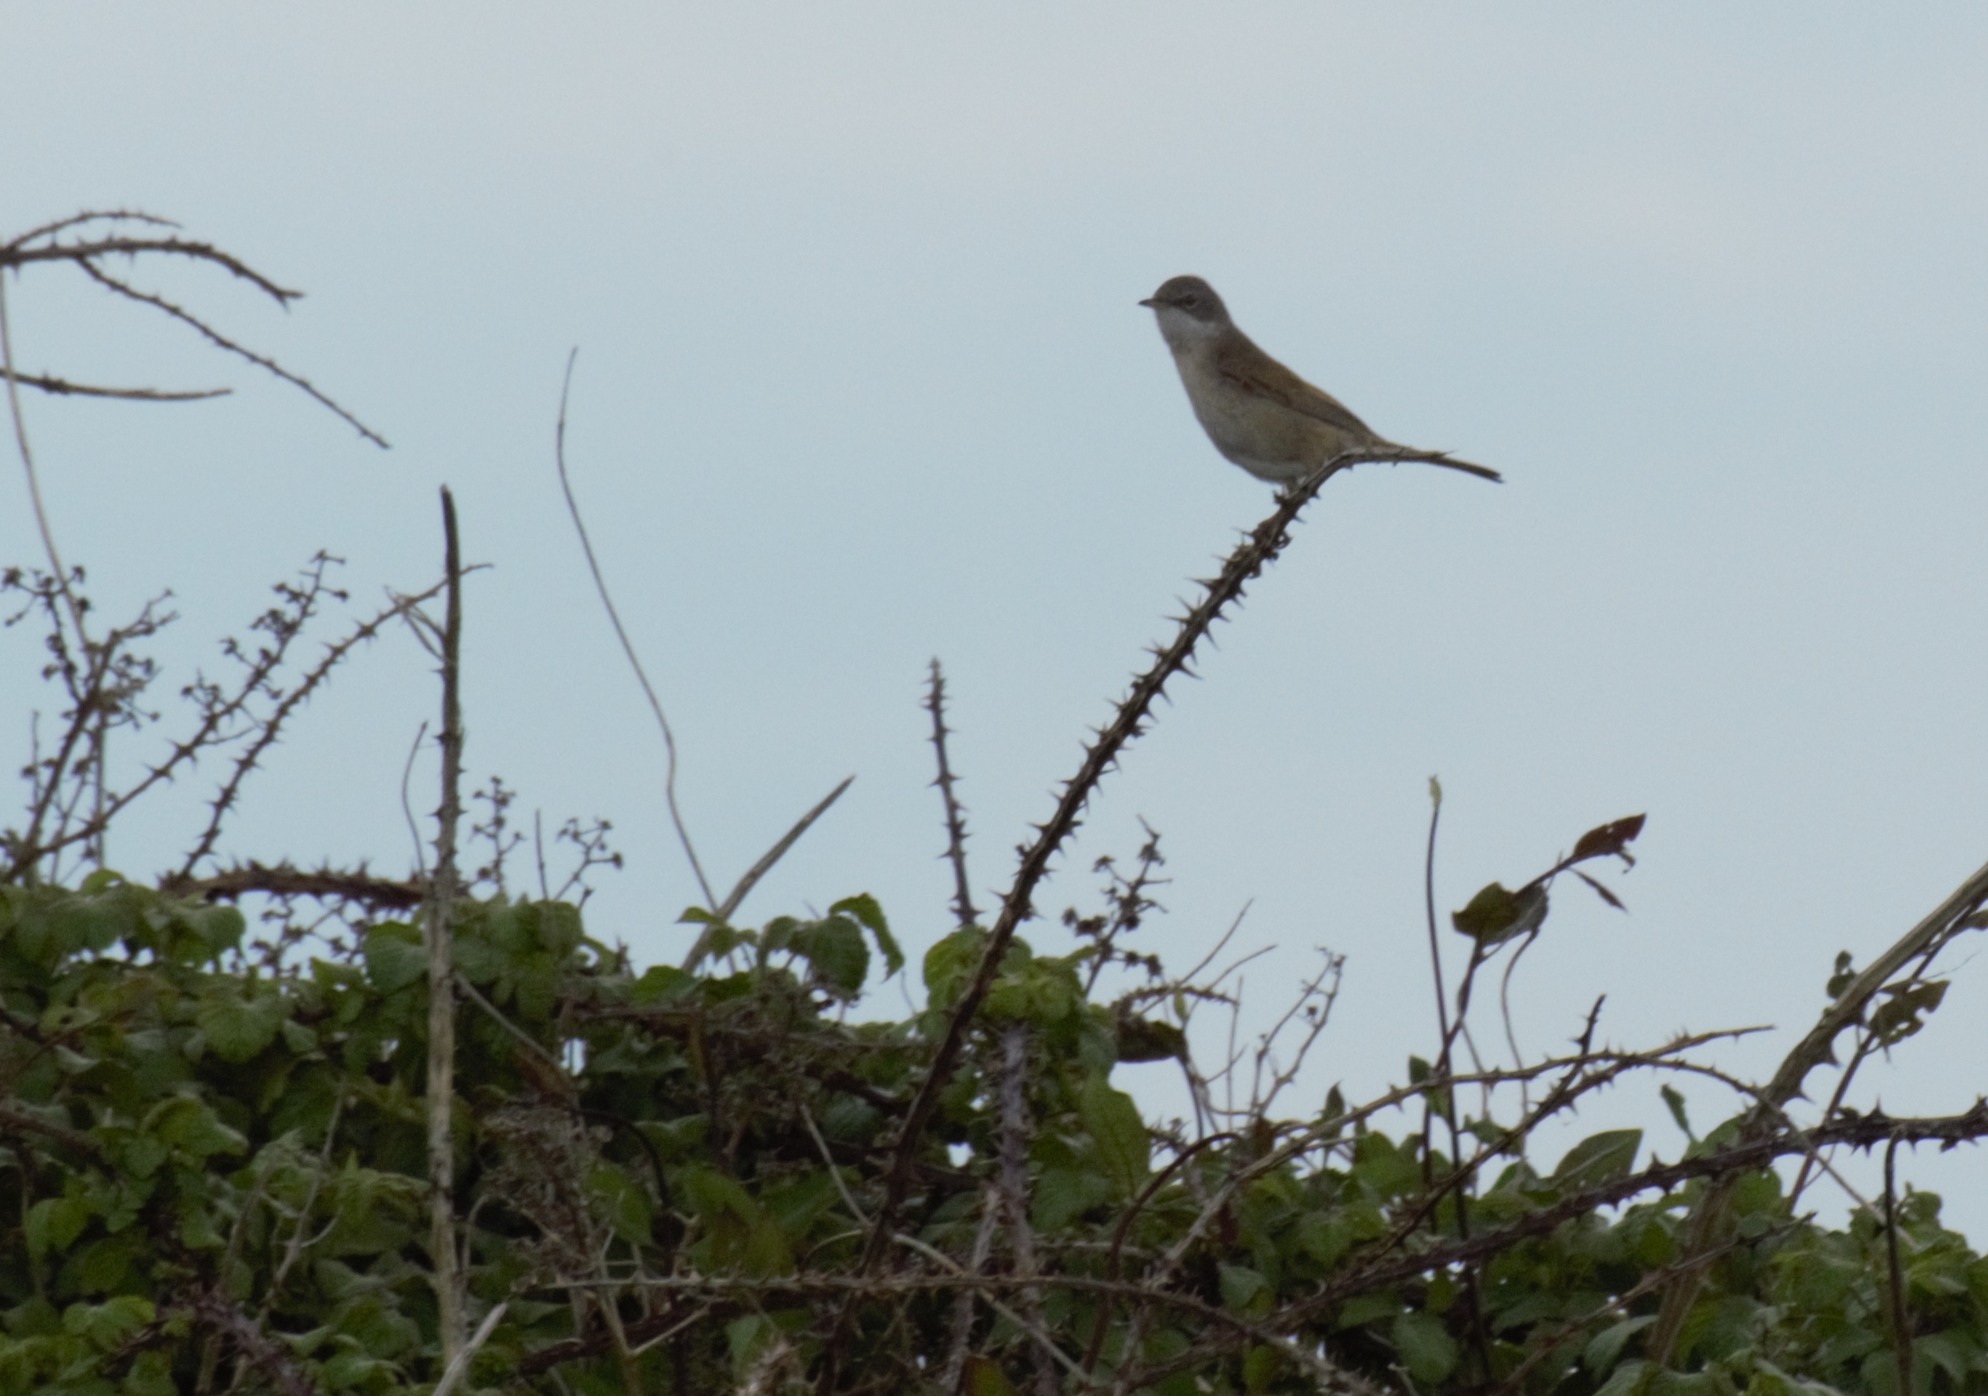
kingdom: Animalia
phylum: Chordata
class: Aves
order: Passeriformes
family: Sylviidae
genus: Sylvia
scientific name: Sylvia communis
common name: Common whitethroat
